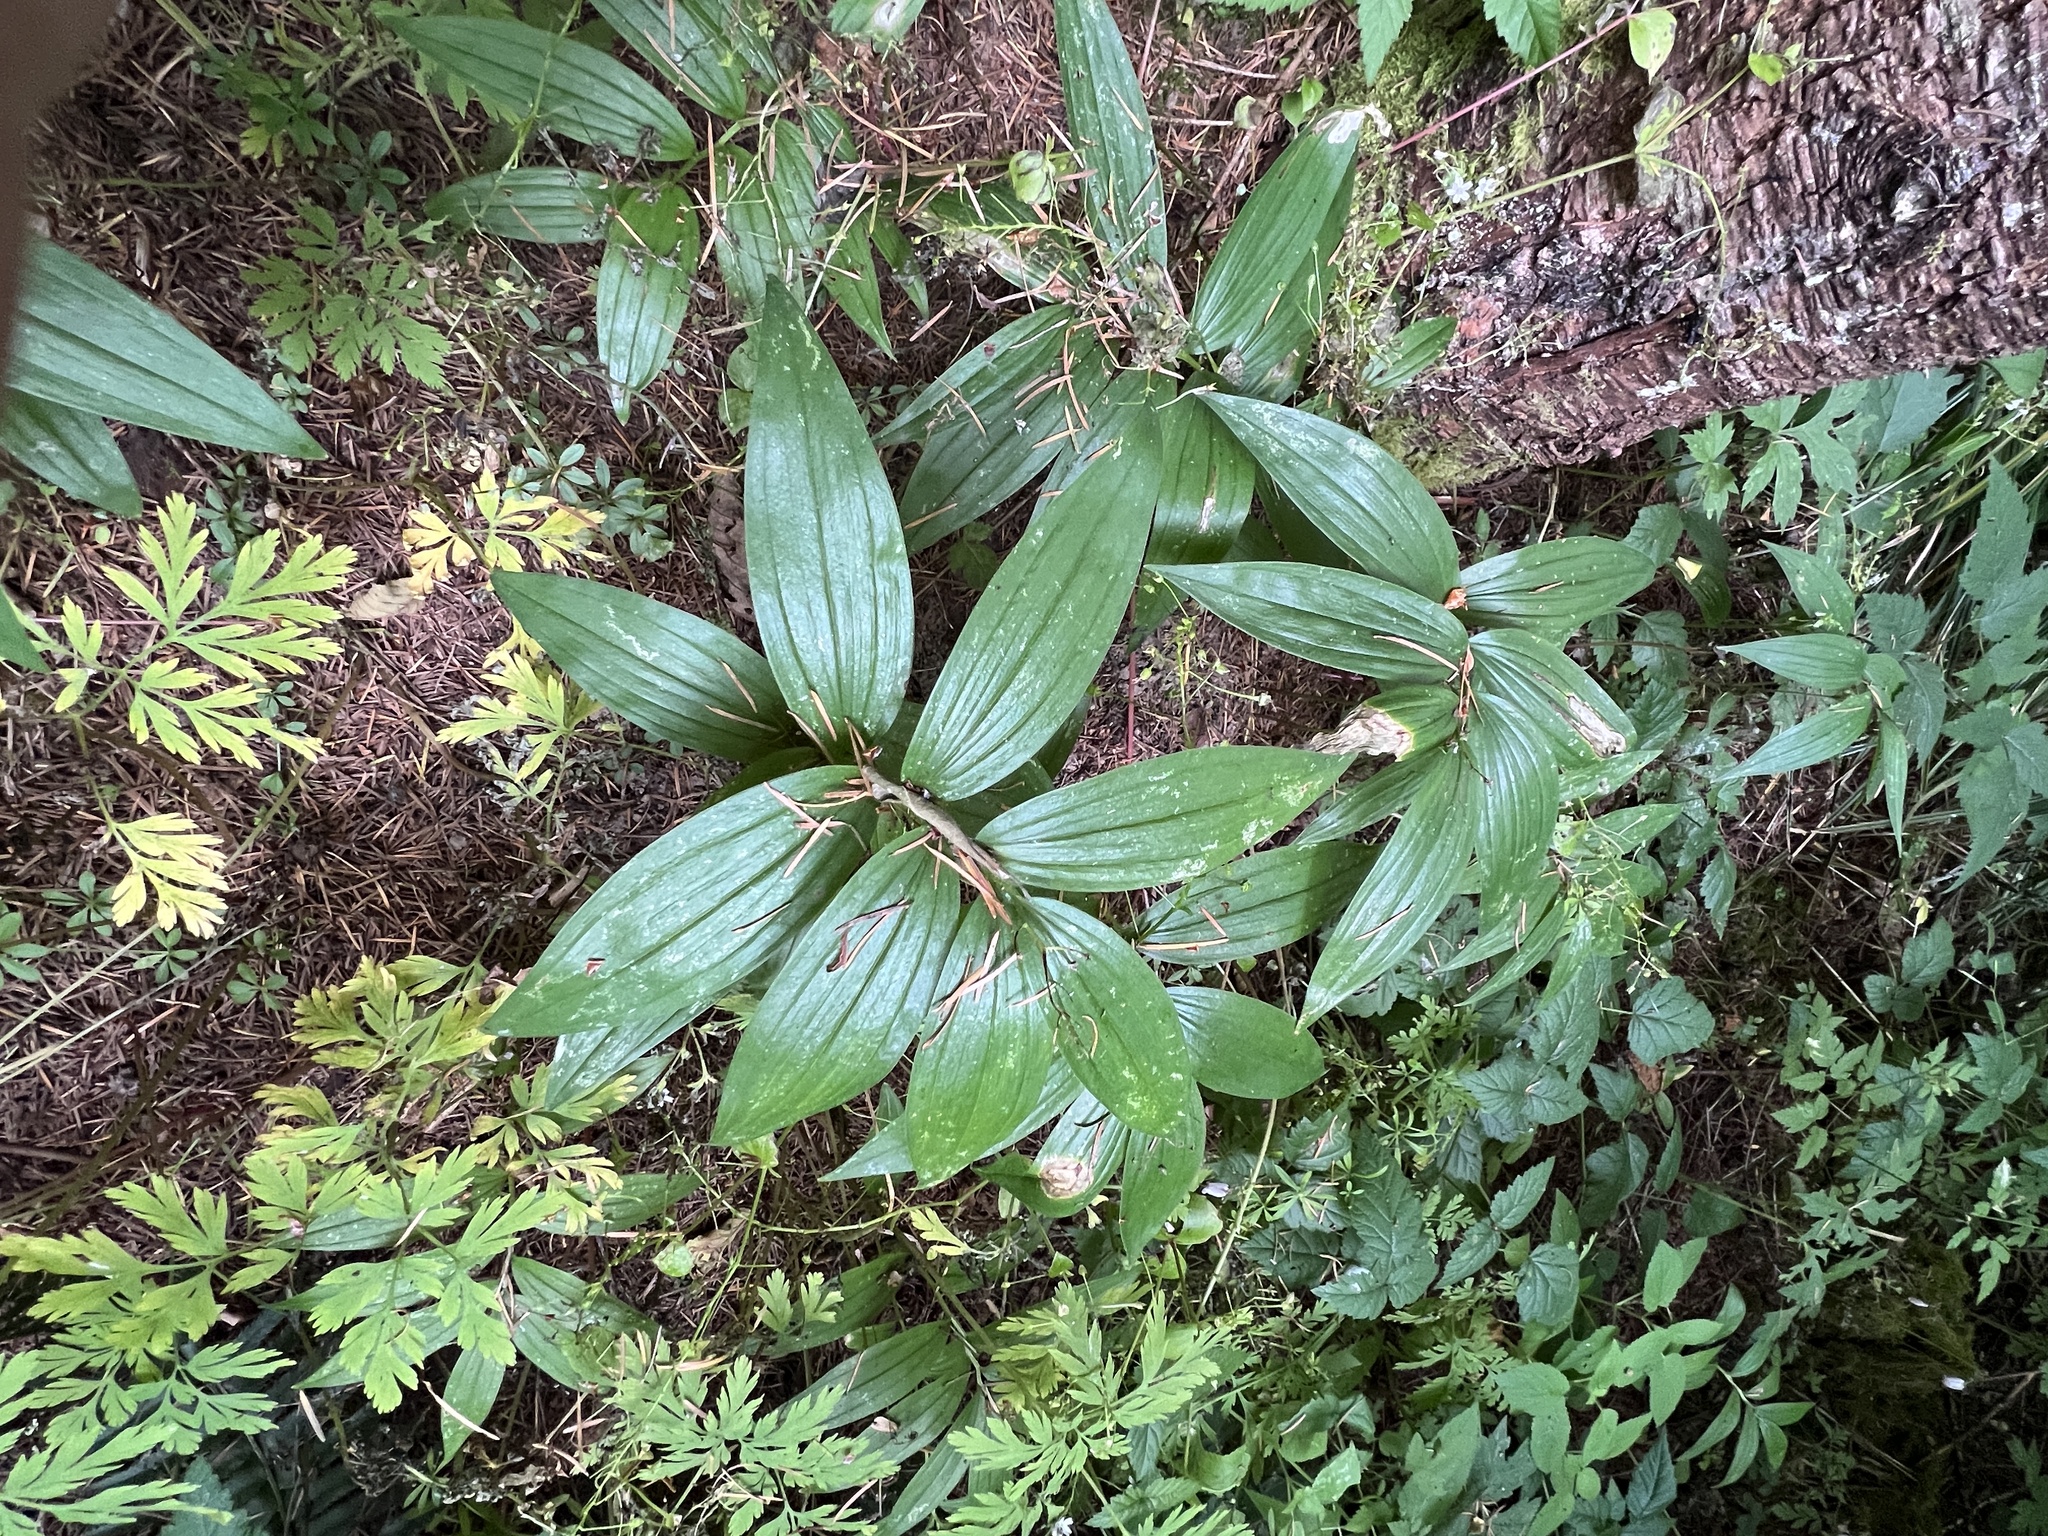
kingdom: Plantae
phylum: Tracheophyta
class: Liliopsida
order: Asparagales
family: Asparagaceae
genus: Maianthemum
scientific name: Maianthemum stellatum
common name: Little false solomon's seal
